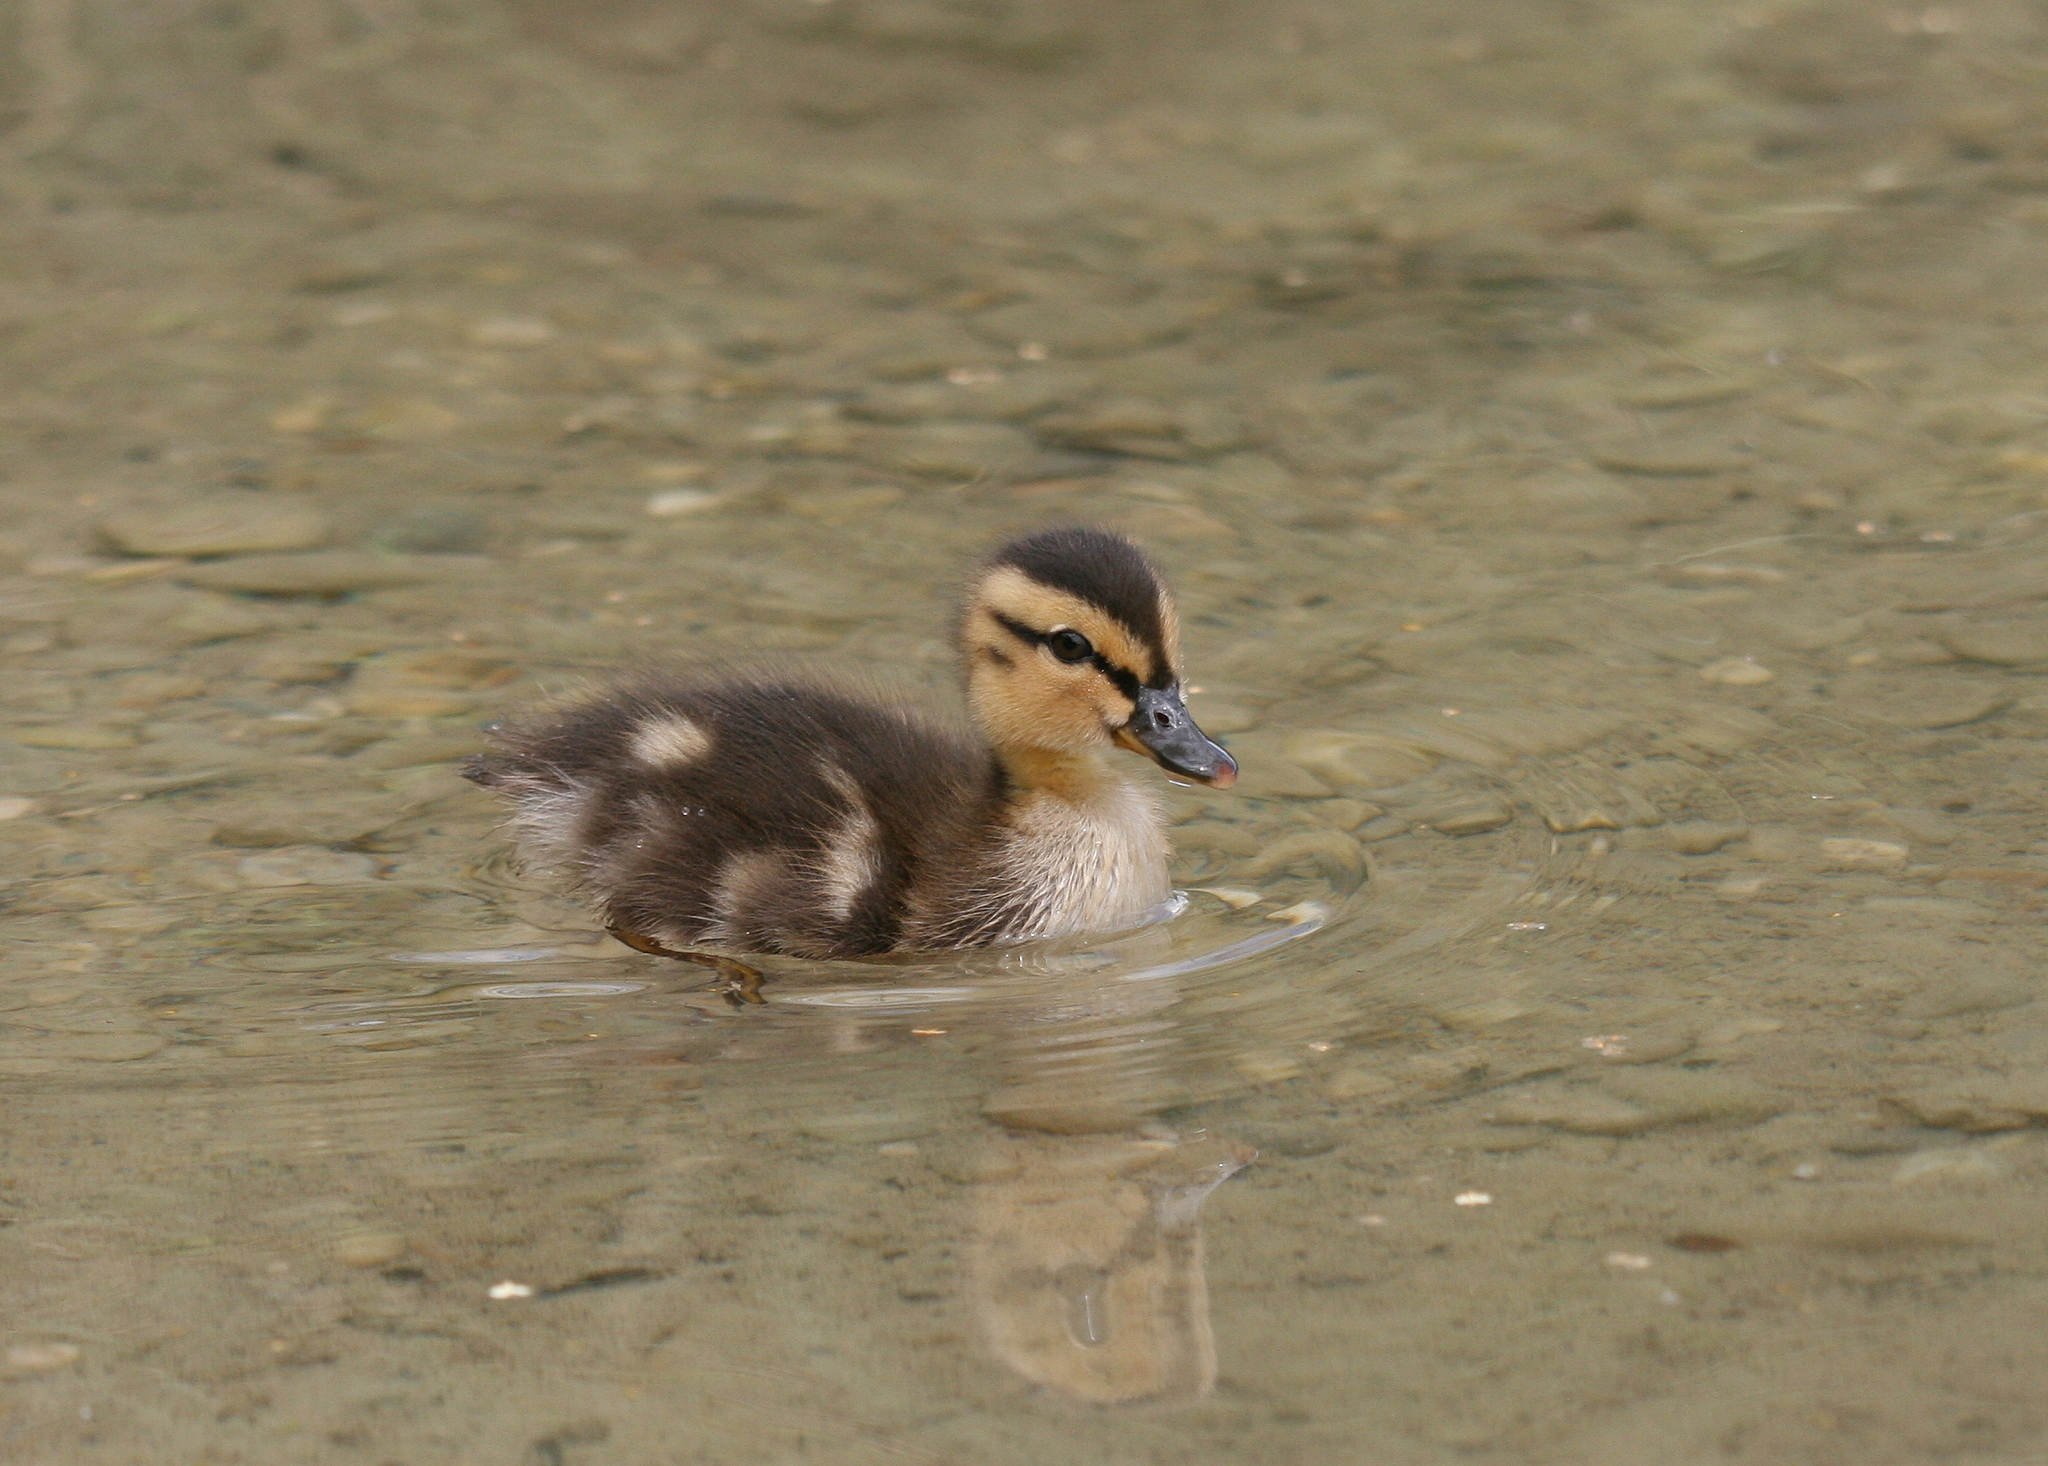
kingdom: Animalia
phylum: Chordata
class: Aves
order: Anseriformes
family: Anatidae
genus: Anas
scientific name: Anas platyrhynchos
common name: Mallard
